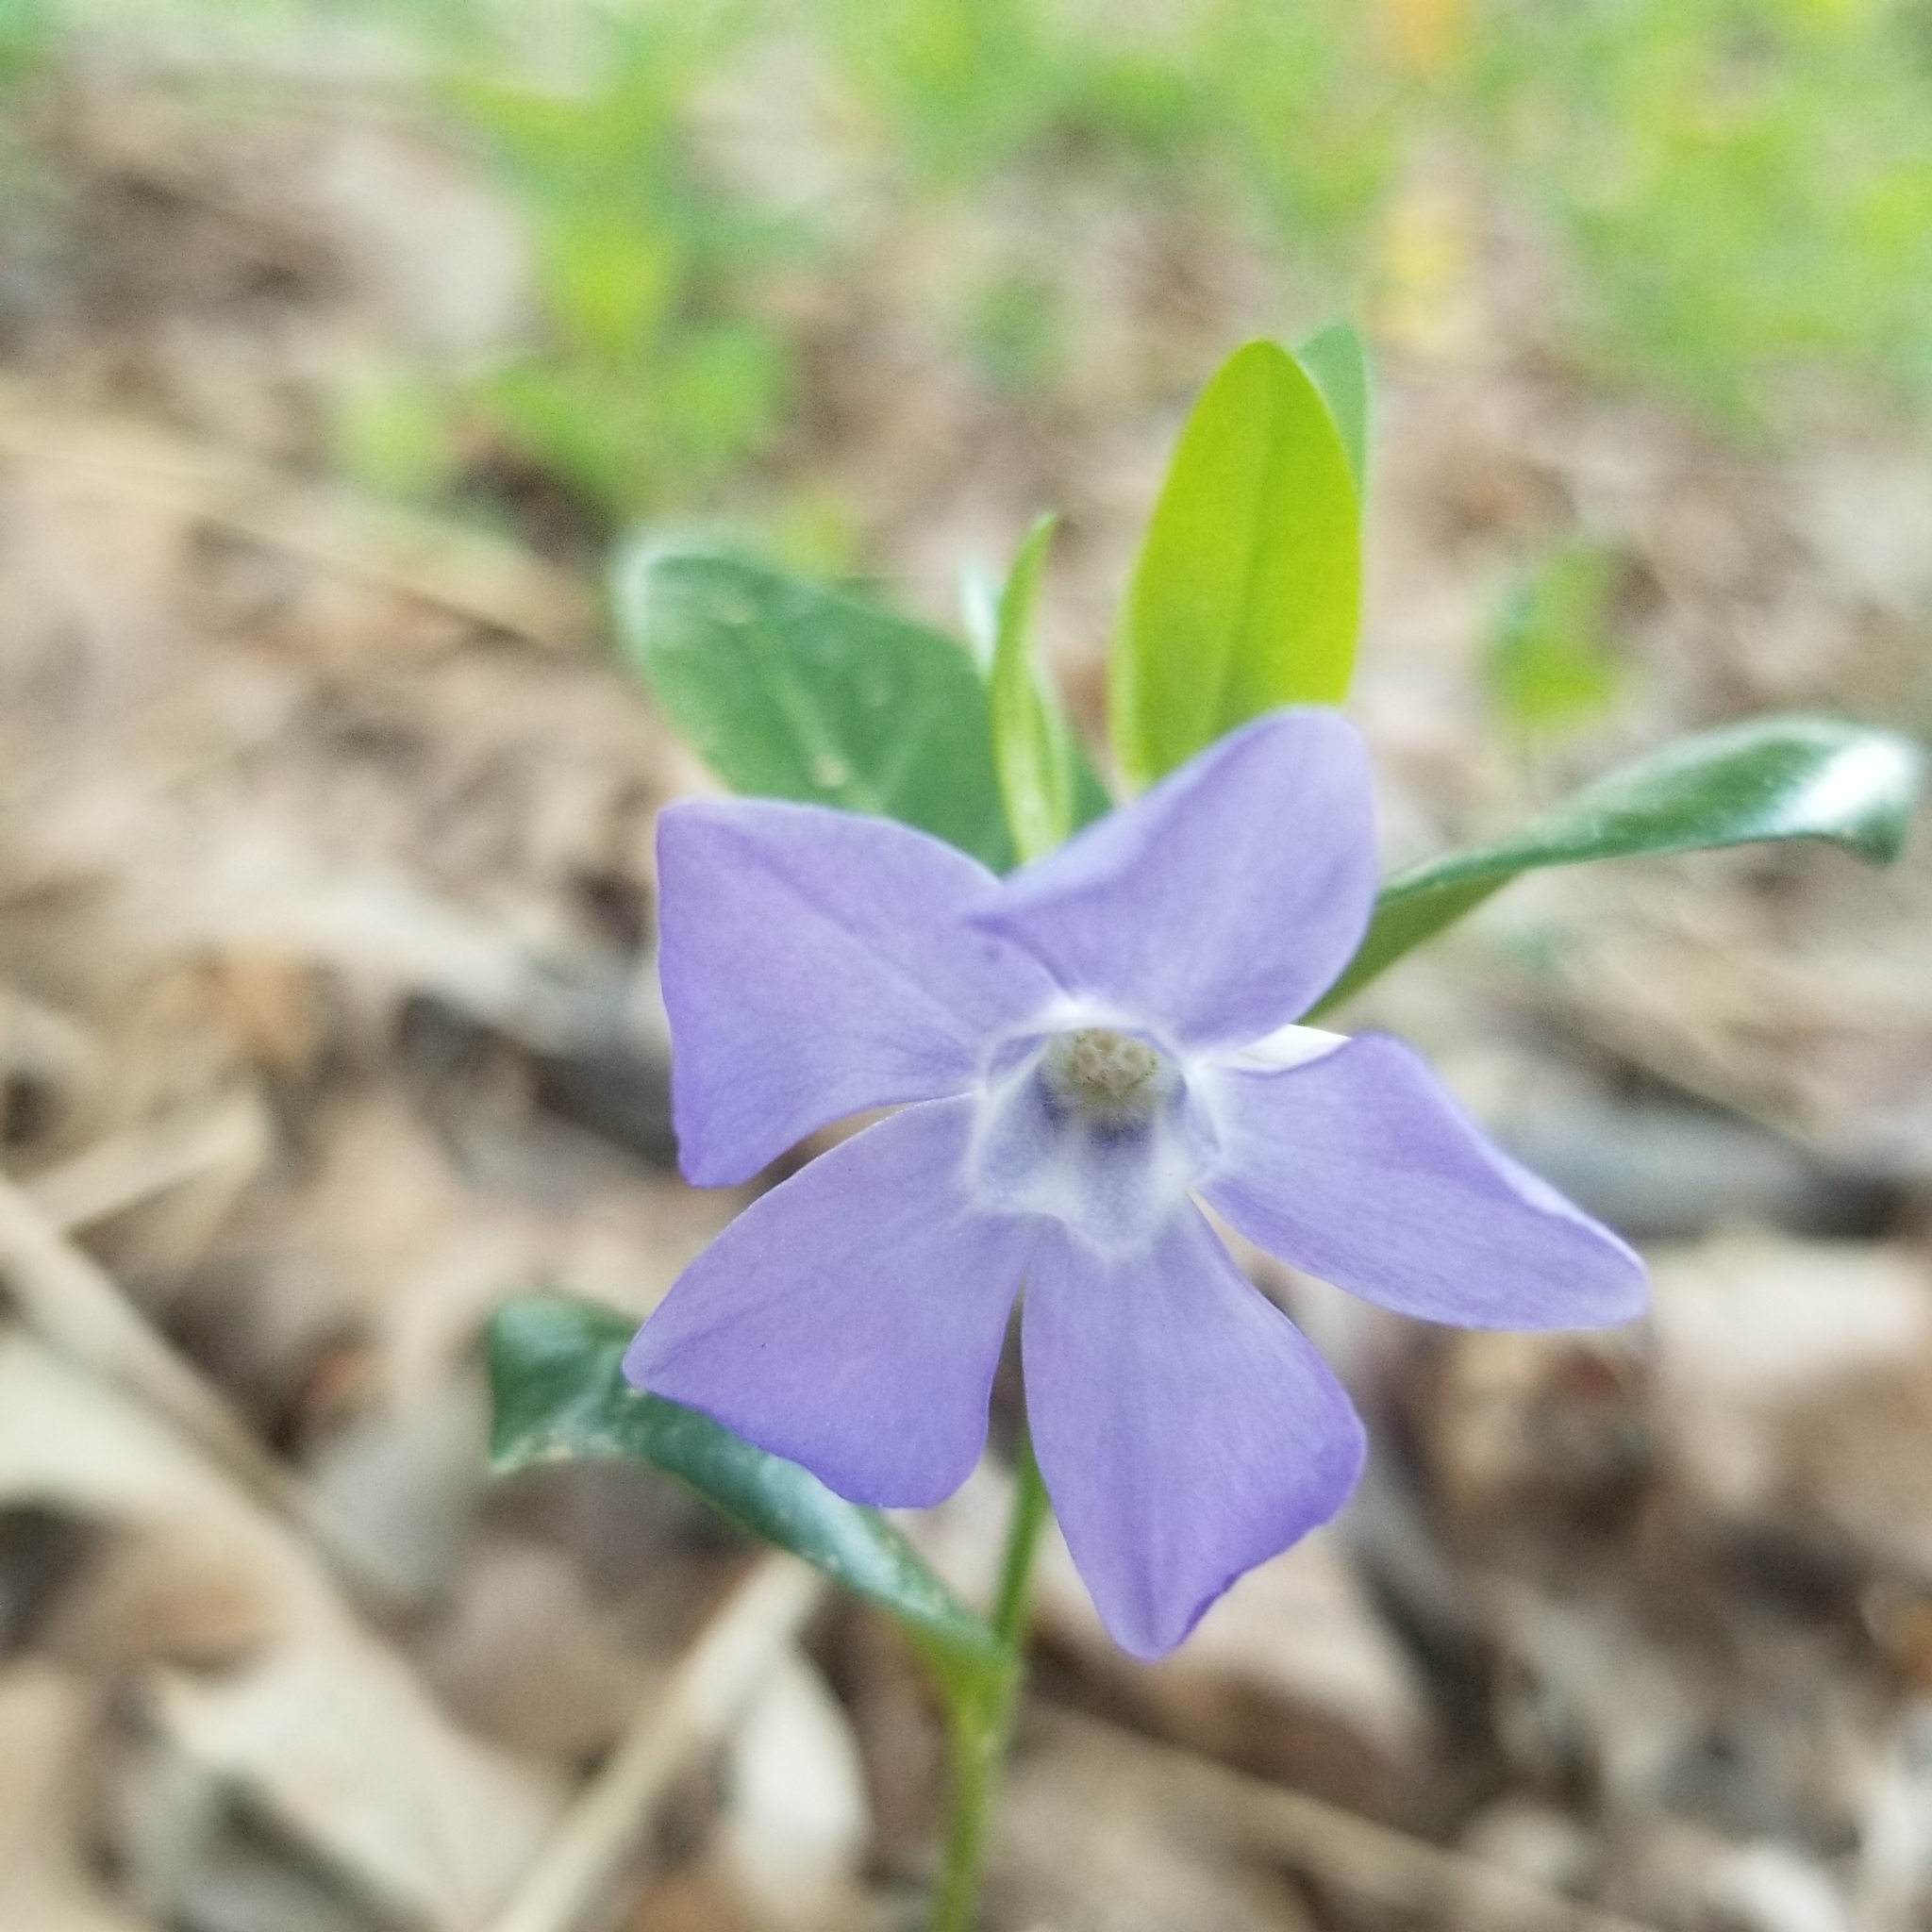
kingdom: Plantae
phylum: Tracheophyta
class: Magnoliopsida
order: Gentianales
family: Apocynaceae
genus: Vinca
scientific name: Vinca major
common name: Greater periwinkle
